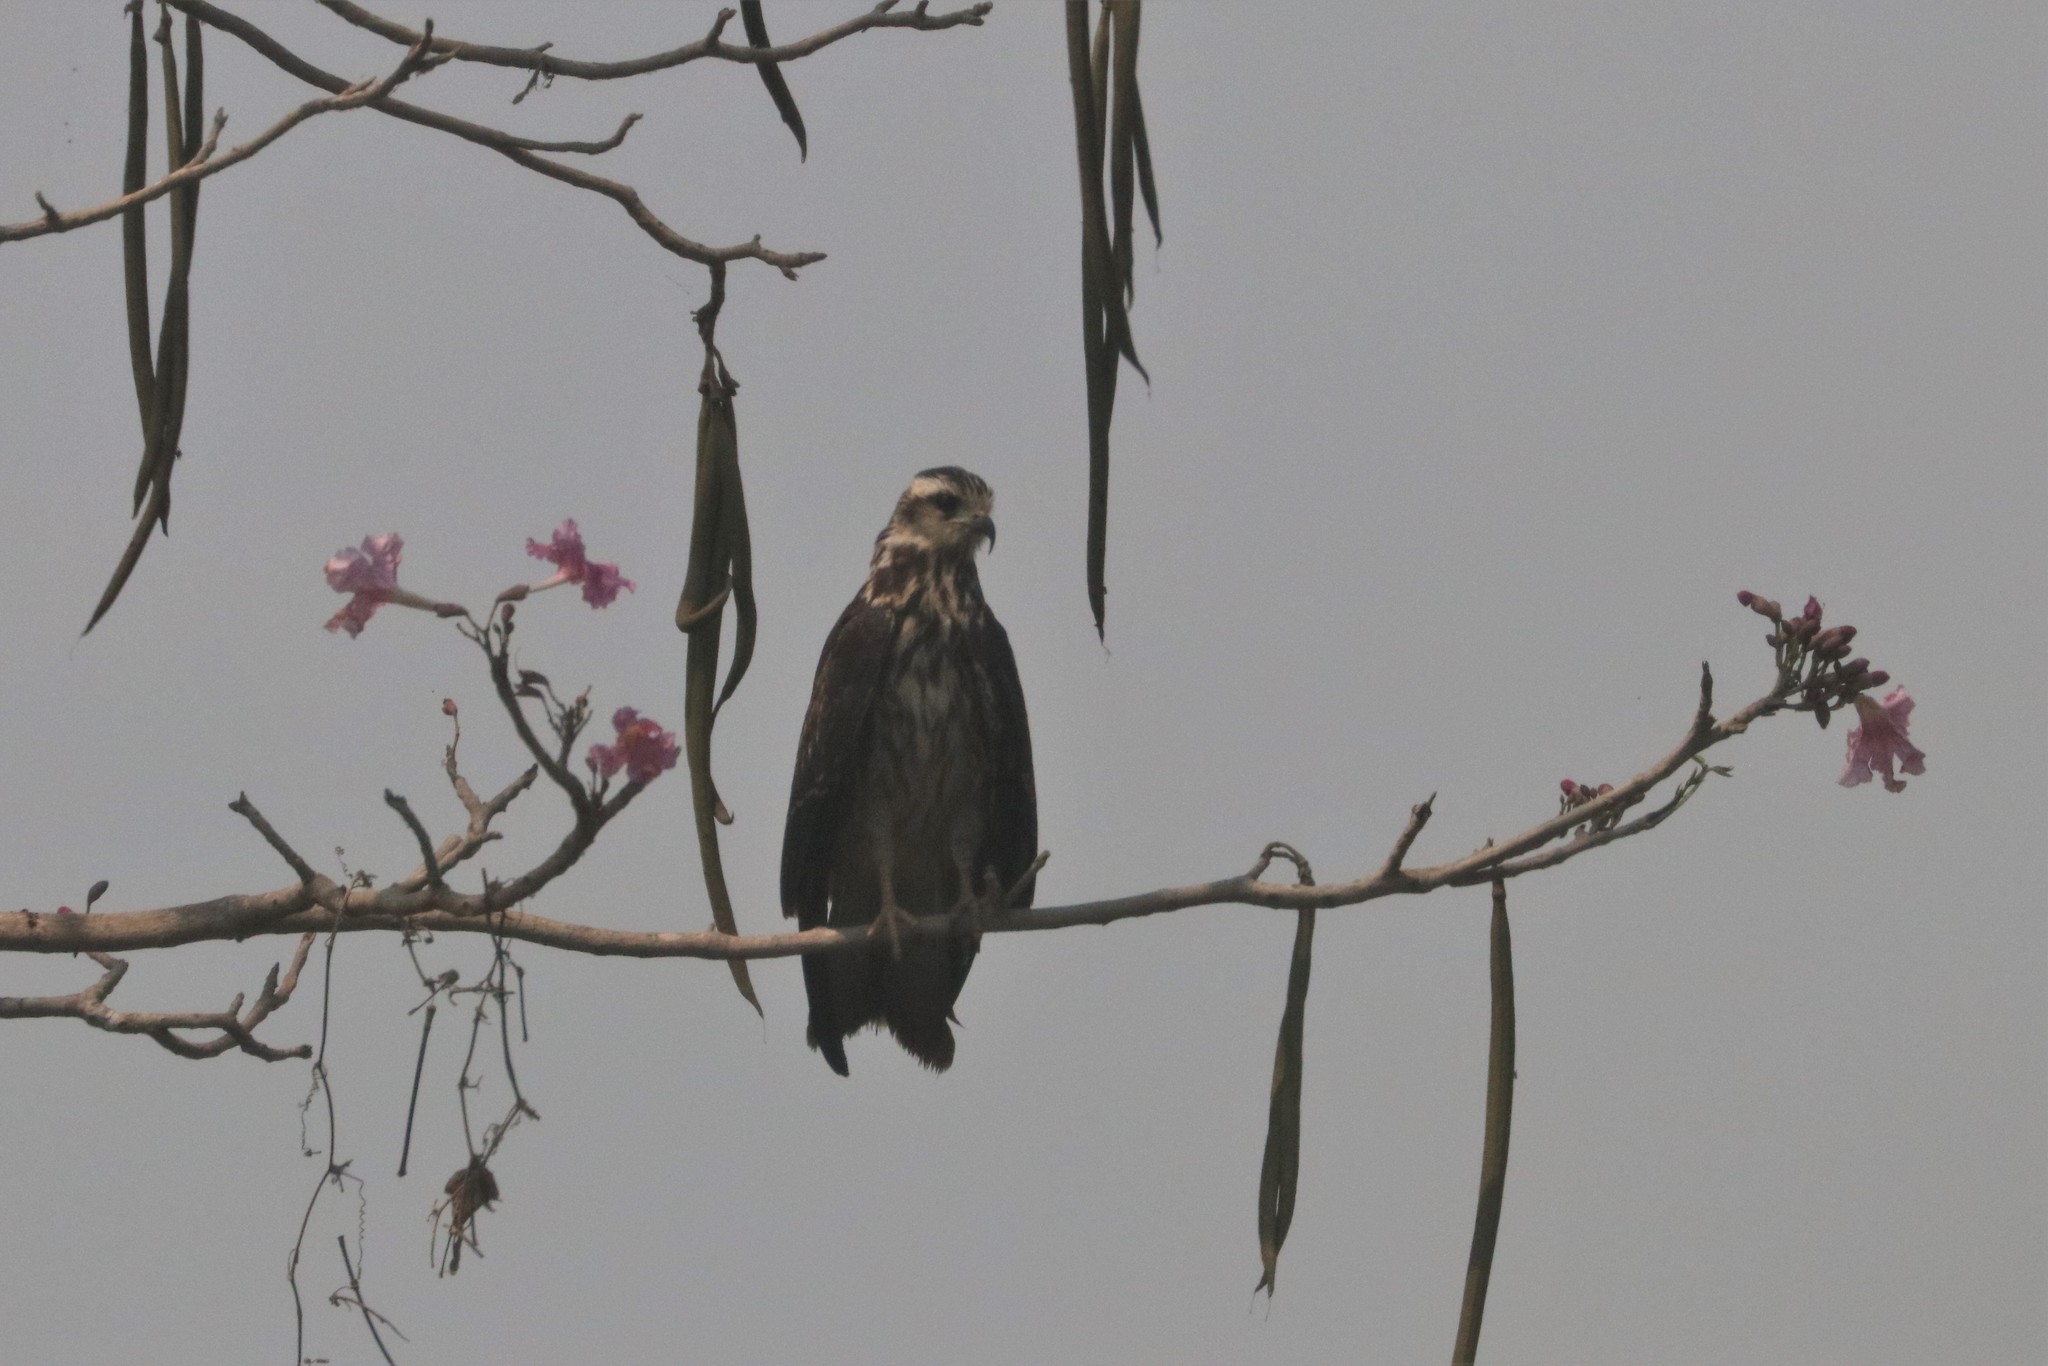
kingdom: Animalia
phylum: Chordata
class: Aves
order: Accipitriformes
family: Accipitridae
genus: Rostrhamus
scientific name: Rostrhamus sociabilis
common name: Snail kite
